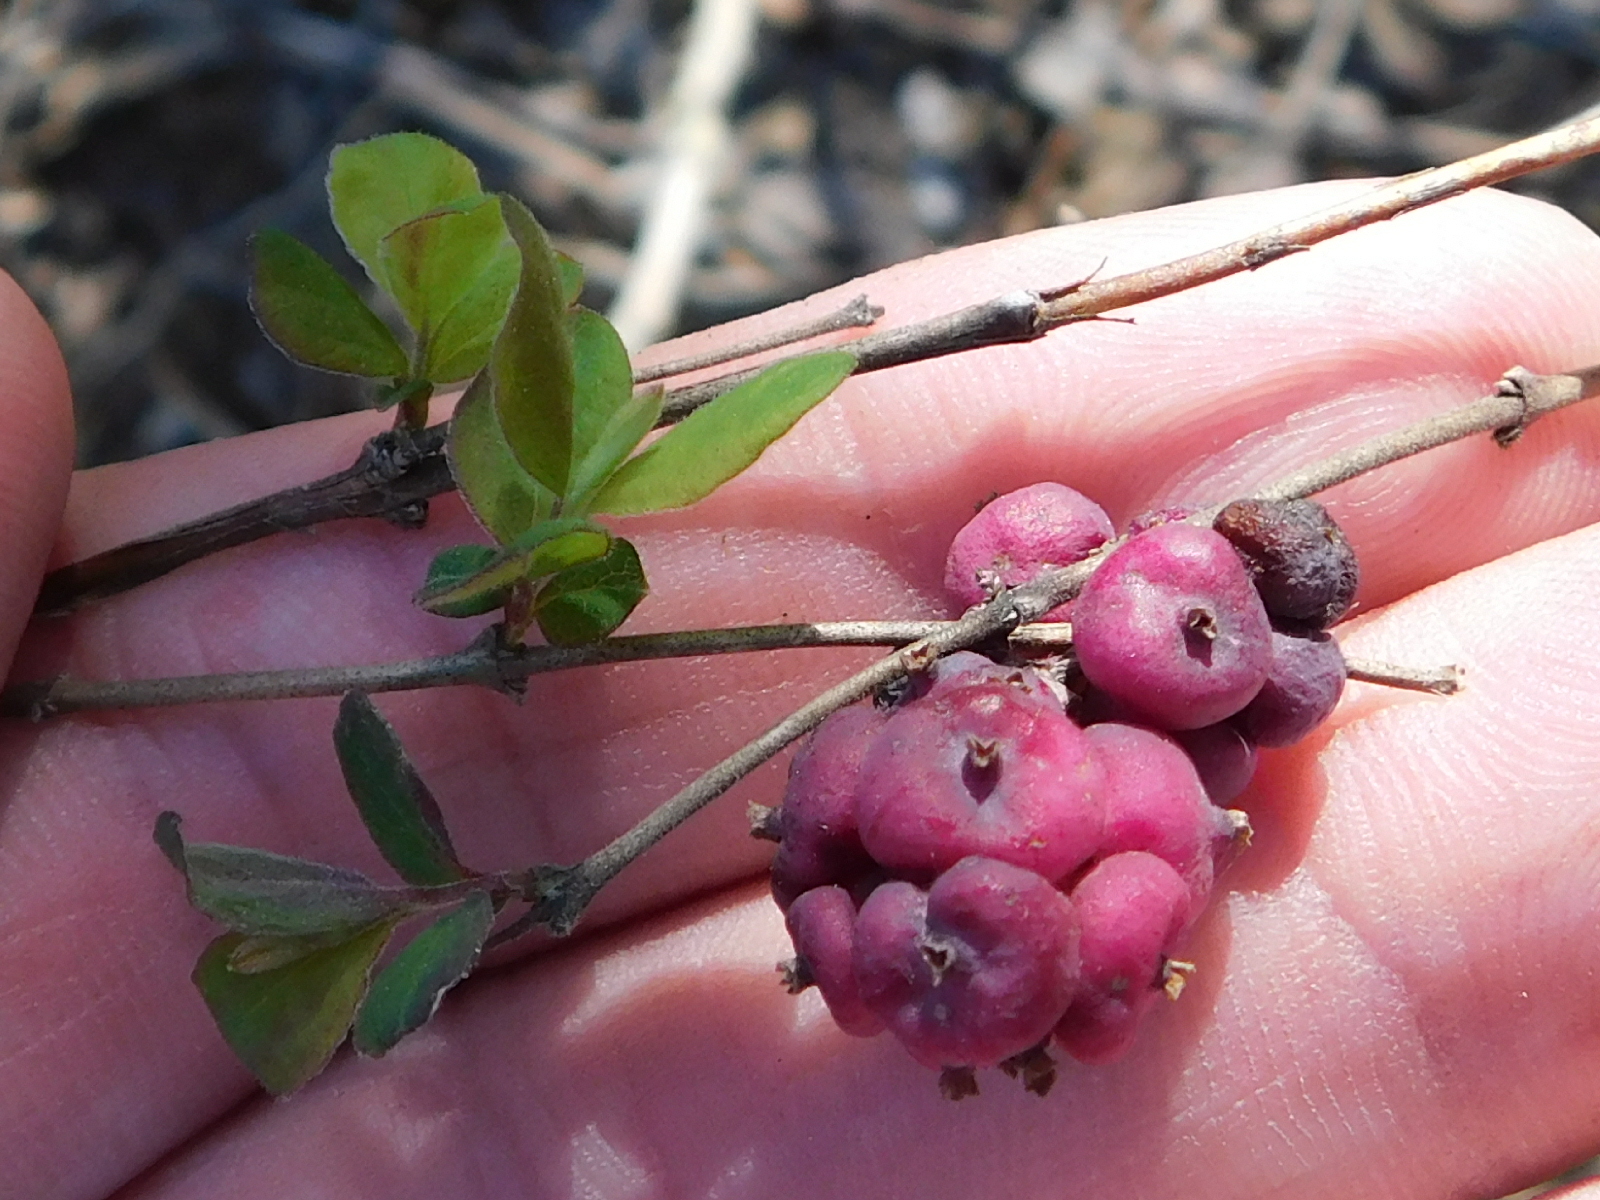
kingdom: Plantae
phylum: Tracheophyta
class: Magnoliopsida
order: Dipsacales
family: Caprifoliaceae
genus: Symphoricarpos
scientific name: Symphoricarpos orbiculatus
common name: Coralberry
